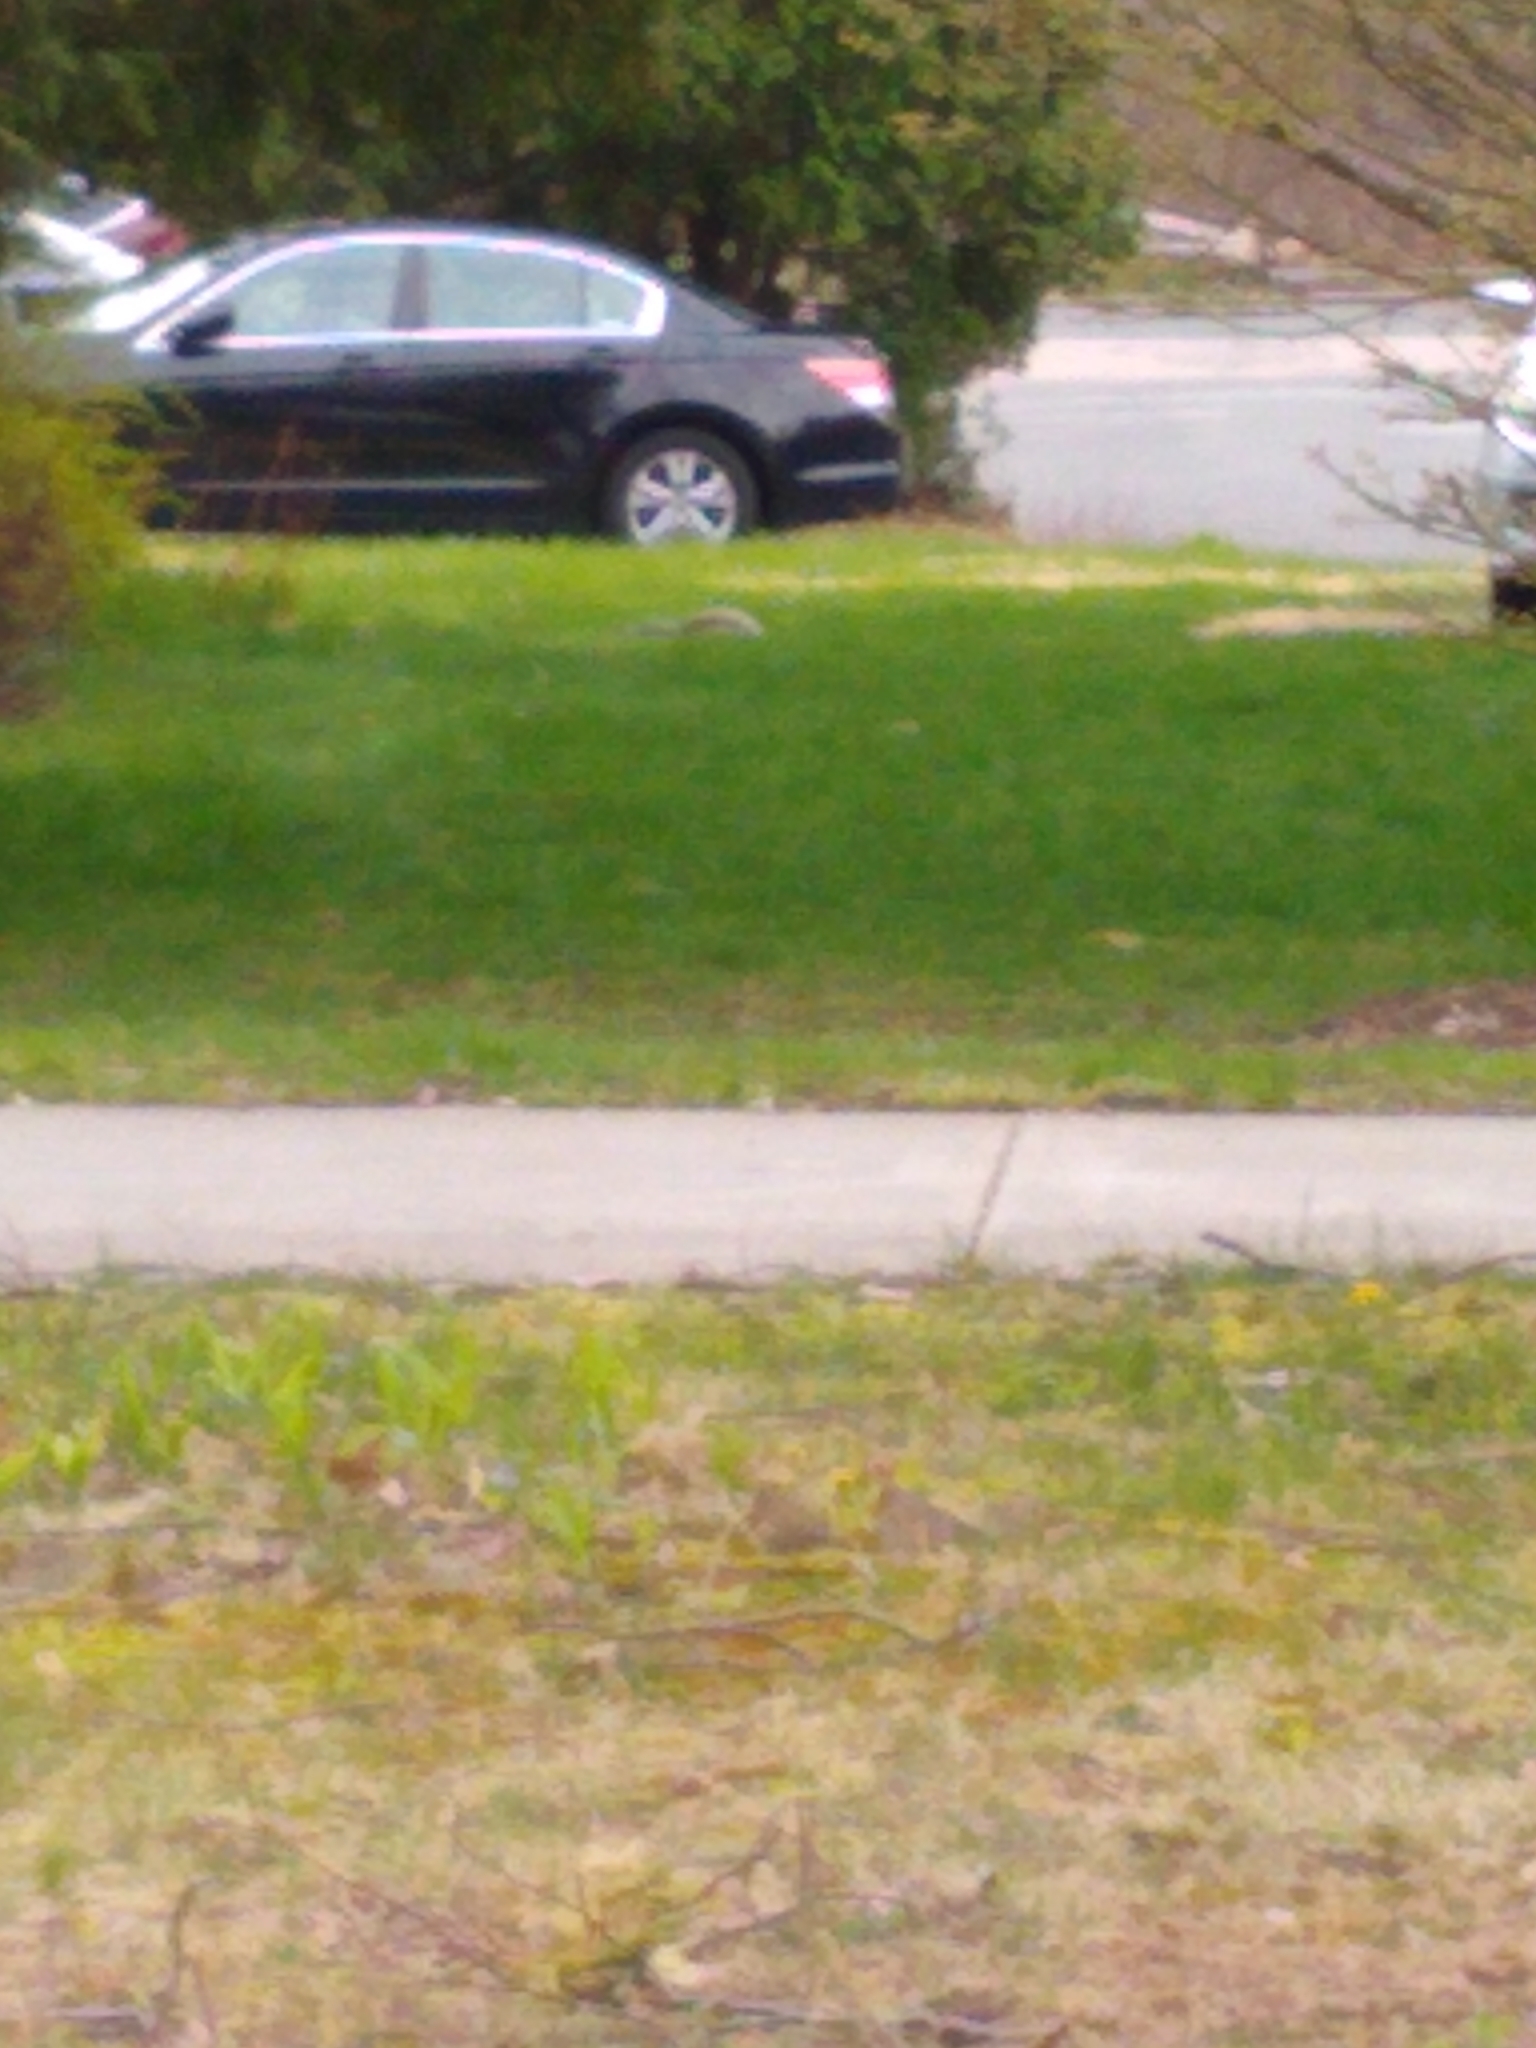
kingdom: Animalia
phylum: Chordata
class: Mammalia
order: Rodentia
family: Sciuridae
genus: Sciurus
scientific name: Sciurus carolinensis
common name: Eastern gray squirrel
